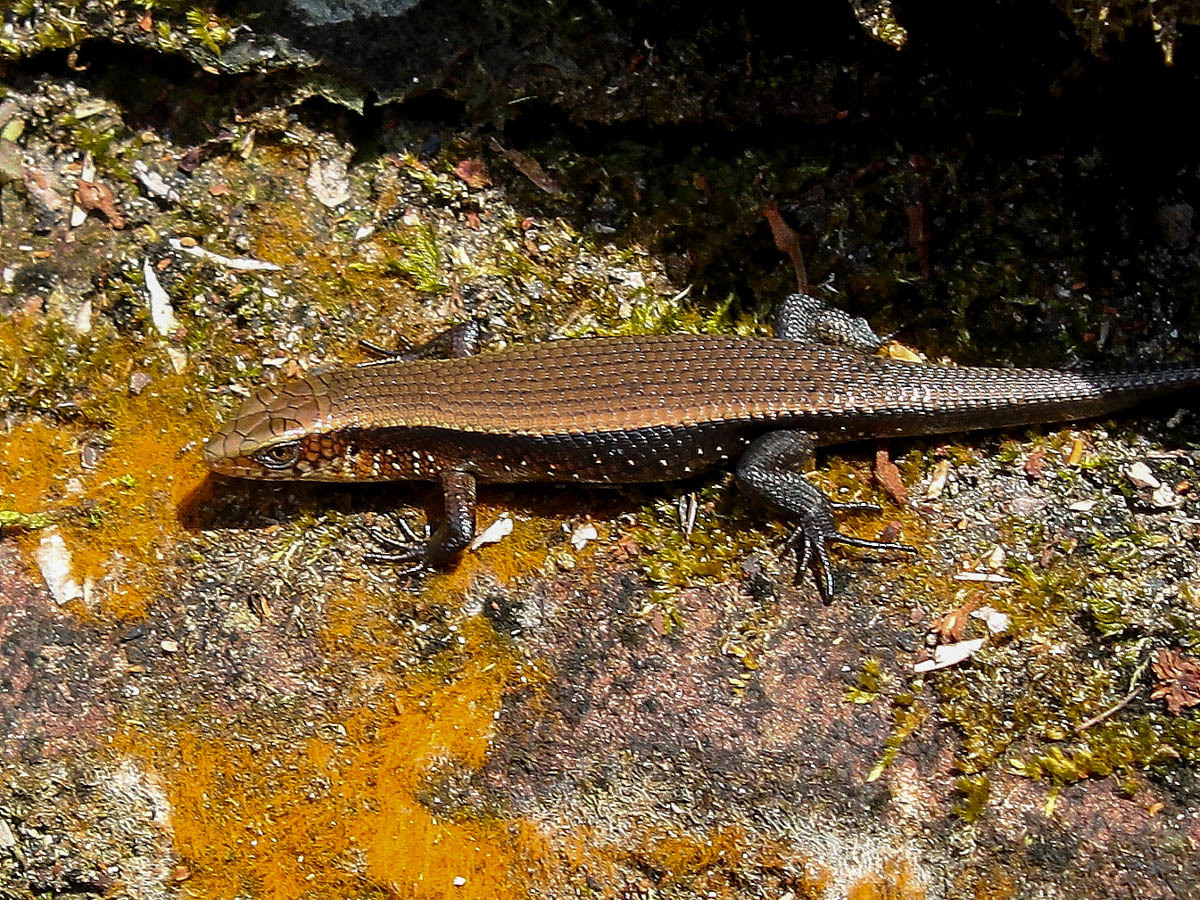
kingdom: Animalia
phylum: Chordata
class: Squamata
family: Scincidae
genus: Eutropis
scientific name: Eutropis multifasciata
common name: Common mabuya
